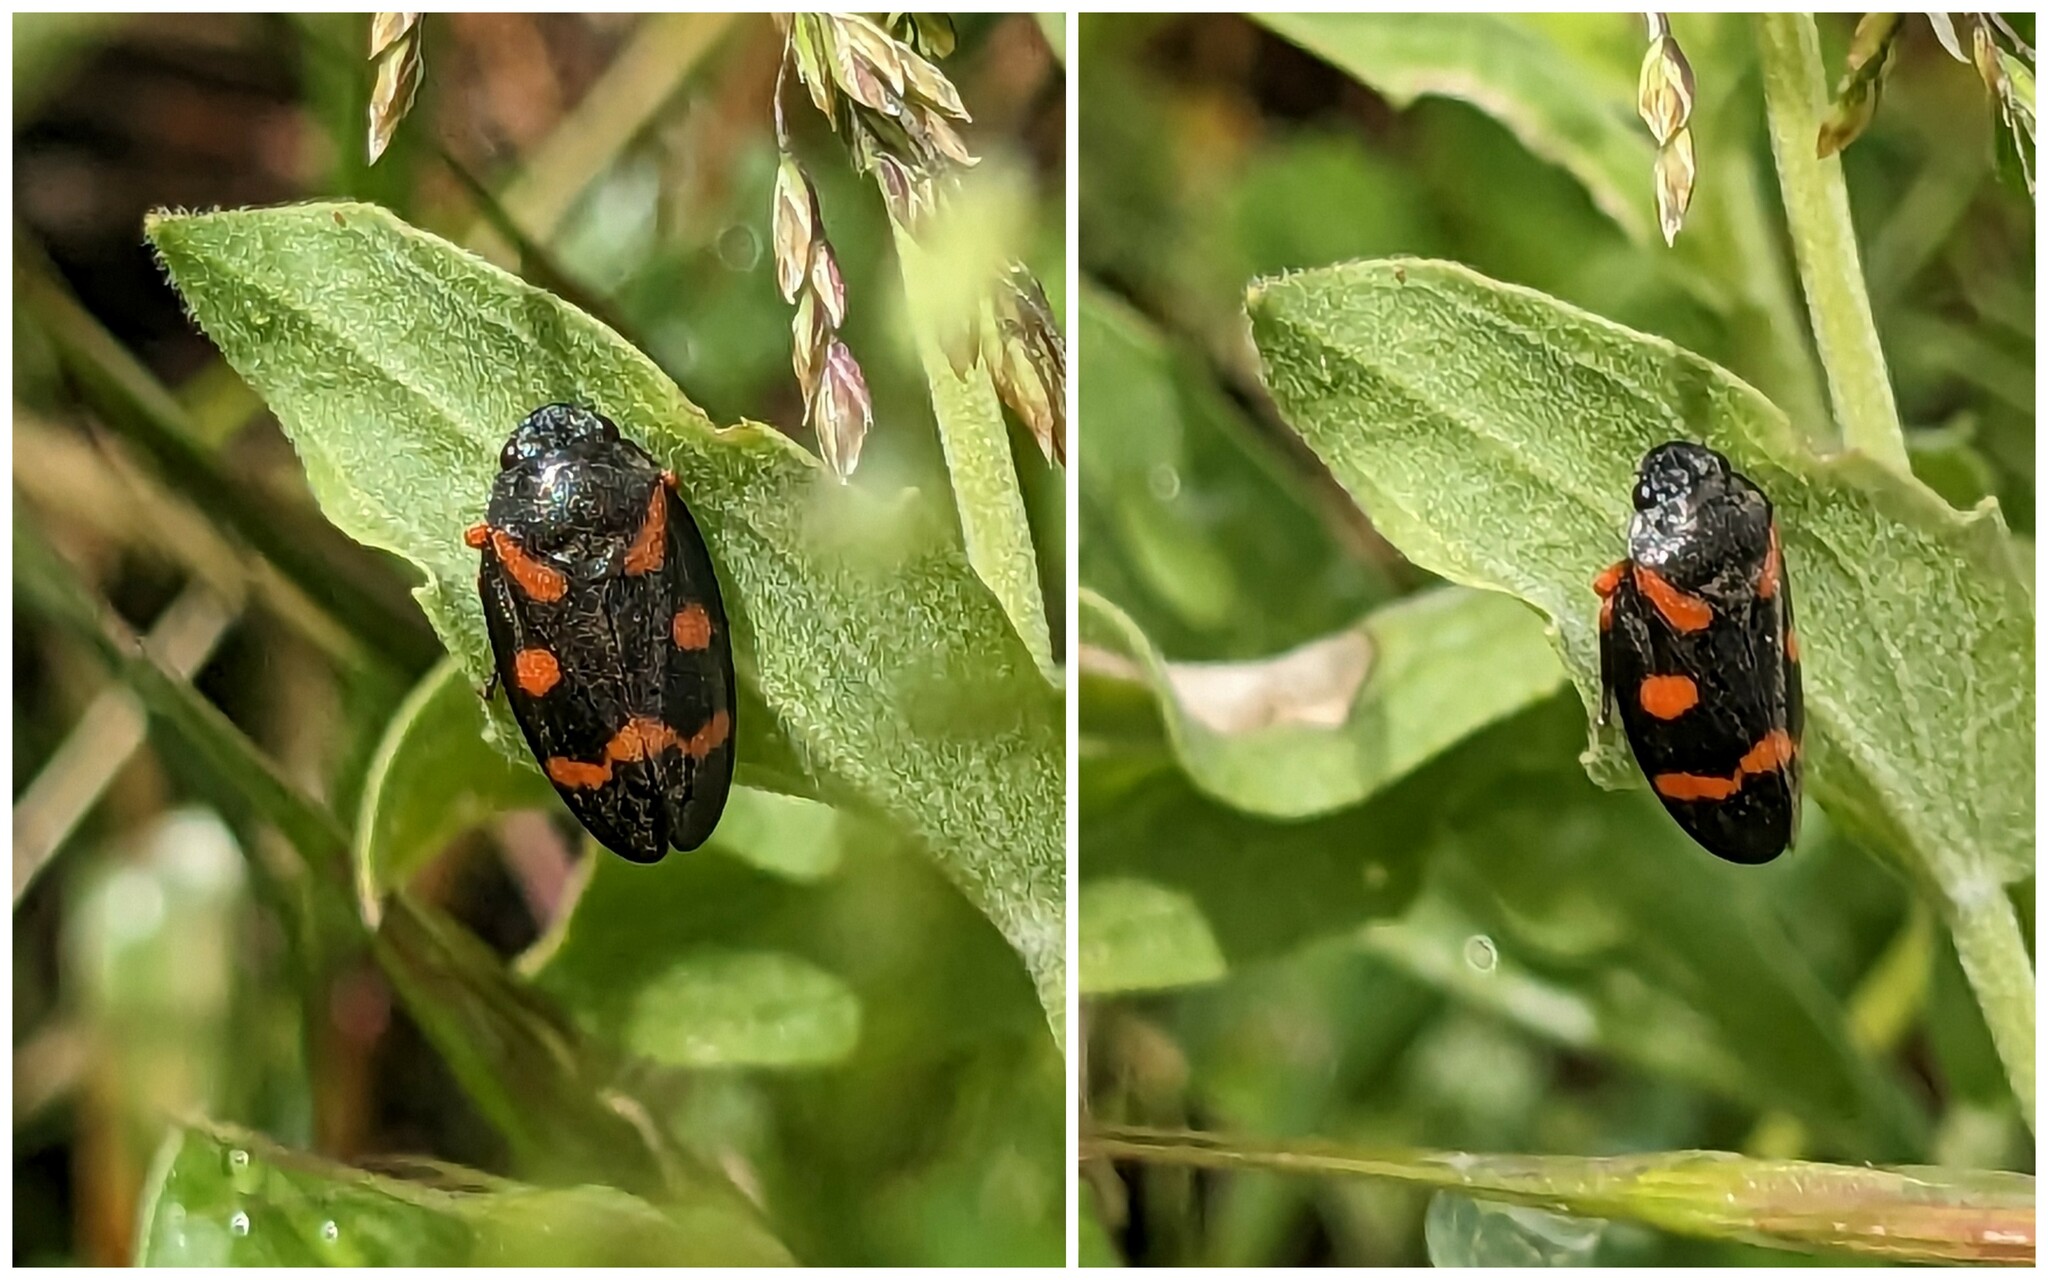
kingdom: Animalia
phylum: Arthropoda
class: Insecta
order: Hemiptera
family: Cercopidae
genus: Cercopis
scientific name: Cercopis intermedia
